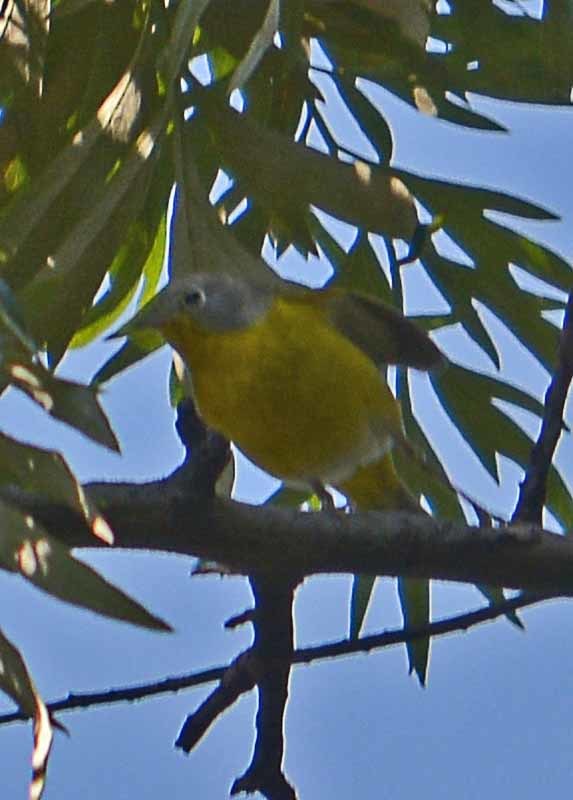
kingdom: Animalia
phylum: Chordata
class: Aves
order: Passeriformes
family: Parulidae
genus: Leiothlypis
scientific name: Leiothlypis ruficapilla
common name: Nashville warbler
